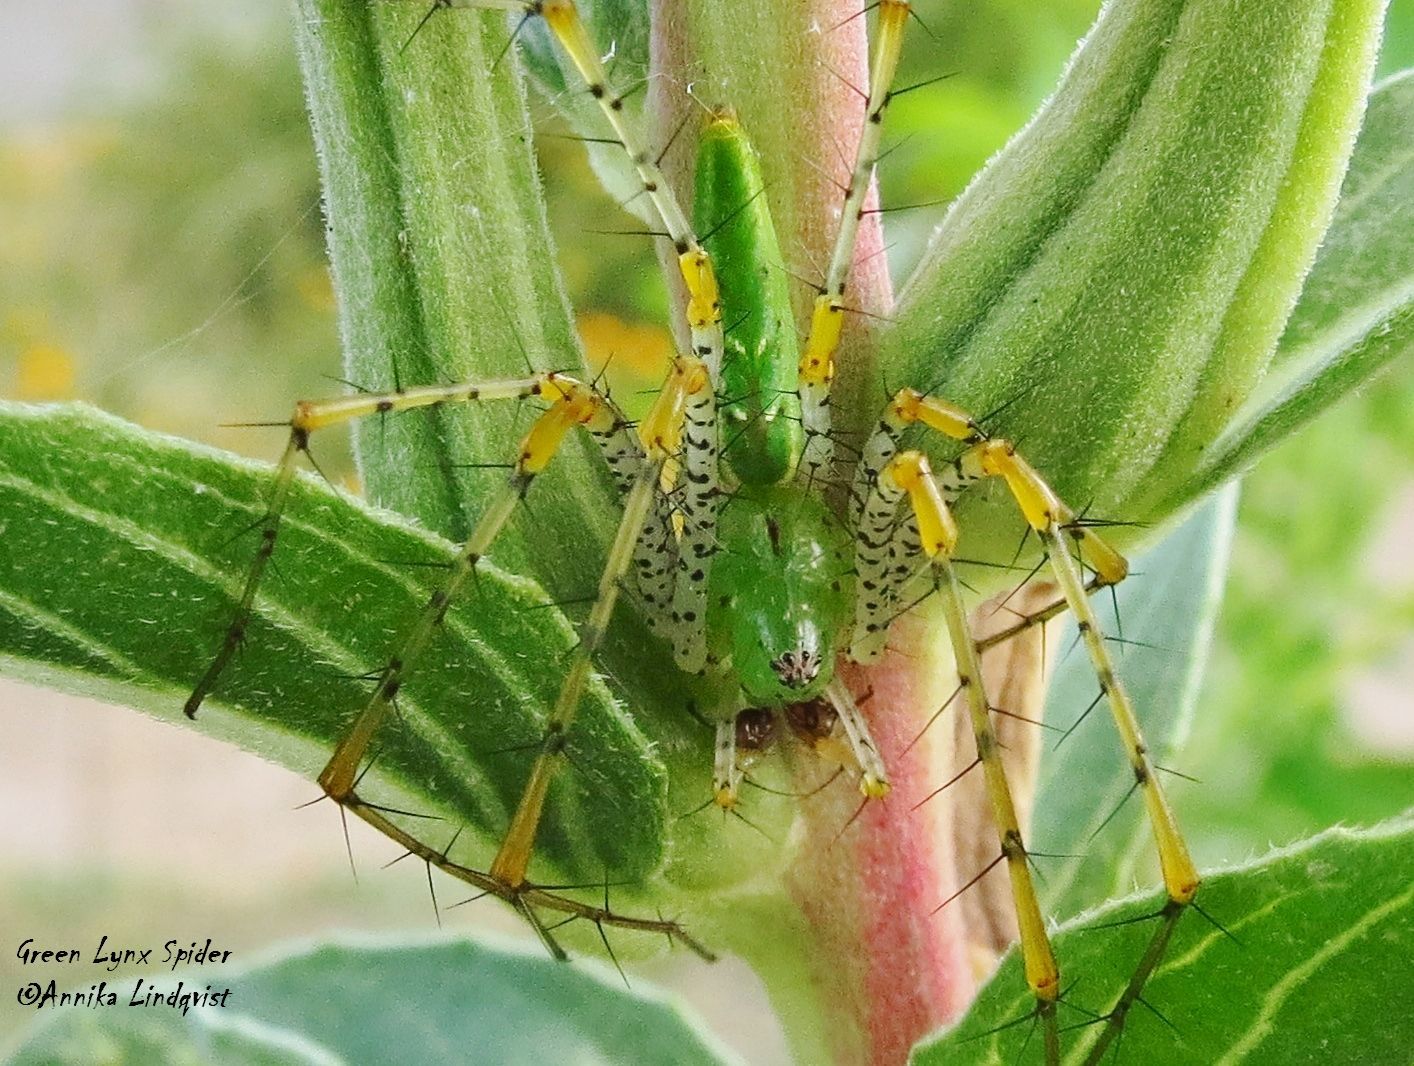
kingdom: Animalia
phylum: Arthropoda
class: Arachnida
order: Araneae
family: Oxyopidae
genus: Peucetia
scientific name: Peucetia viridans
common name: Lynx spiders
